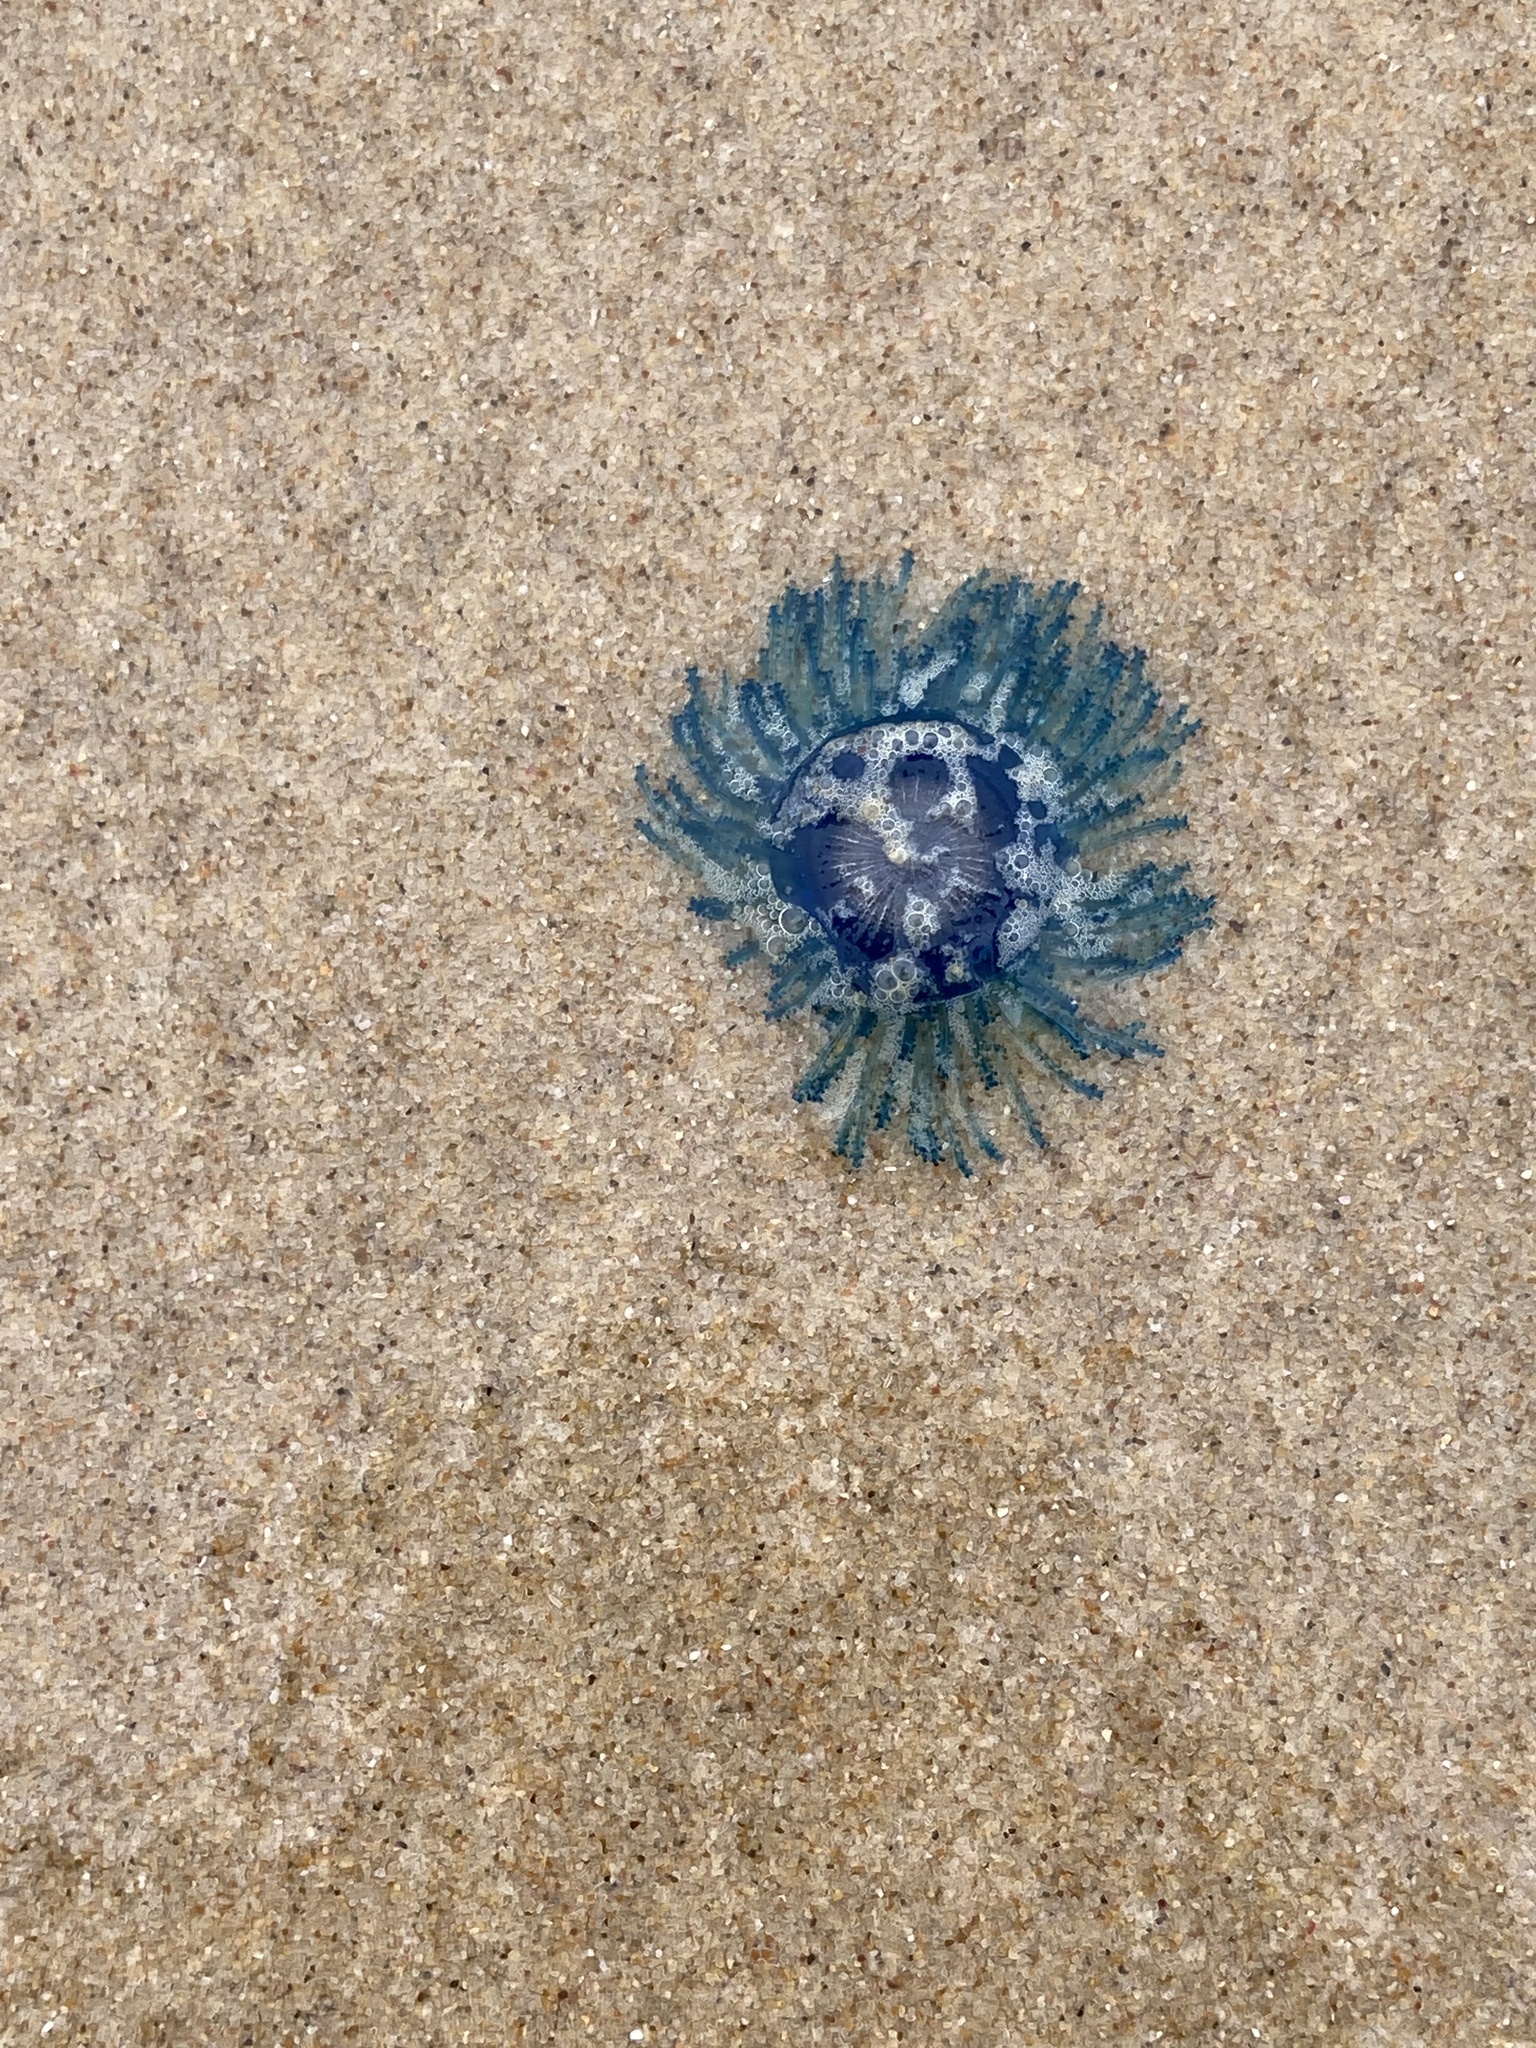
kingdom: Animalia
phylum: Cnidaria
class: Hydrozoa
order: Anthoathecata
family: Porpitidae
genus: Porpita
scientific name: Porpita porpita
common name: Blue button
